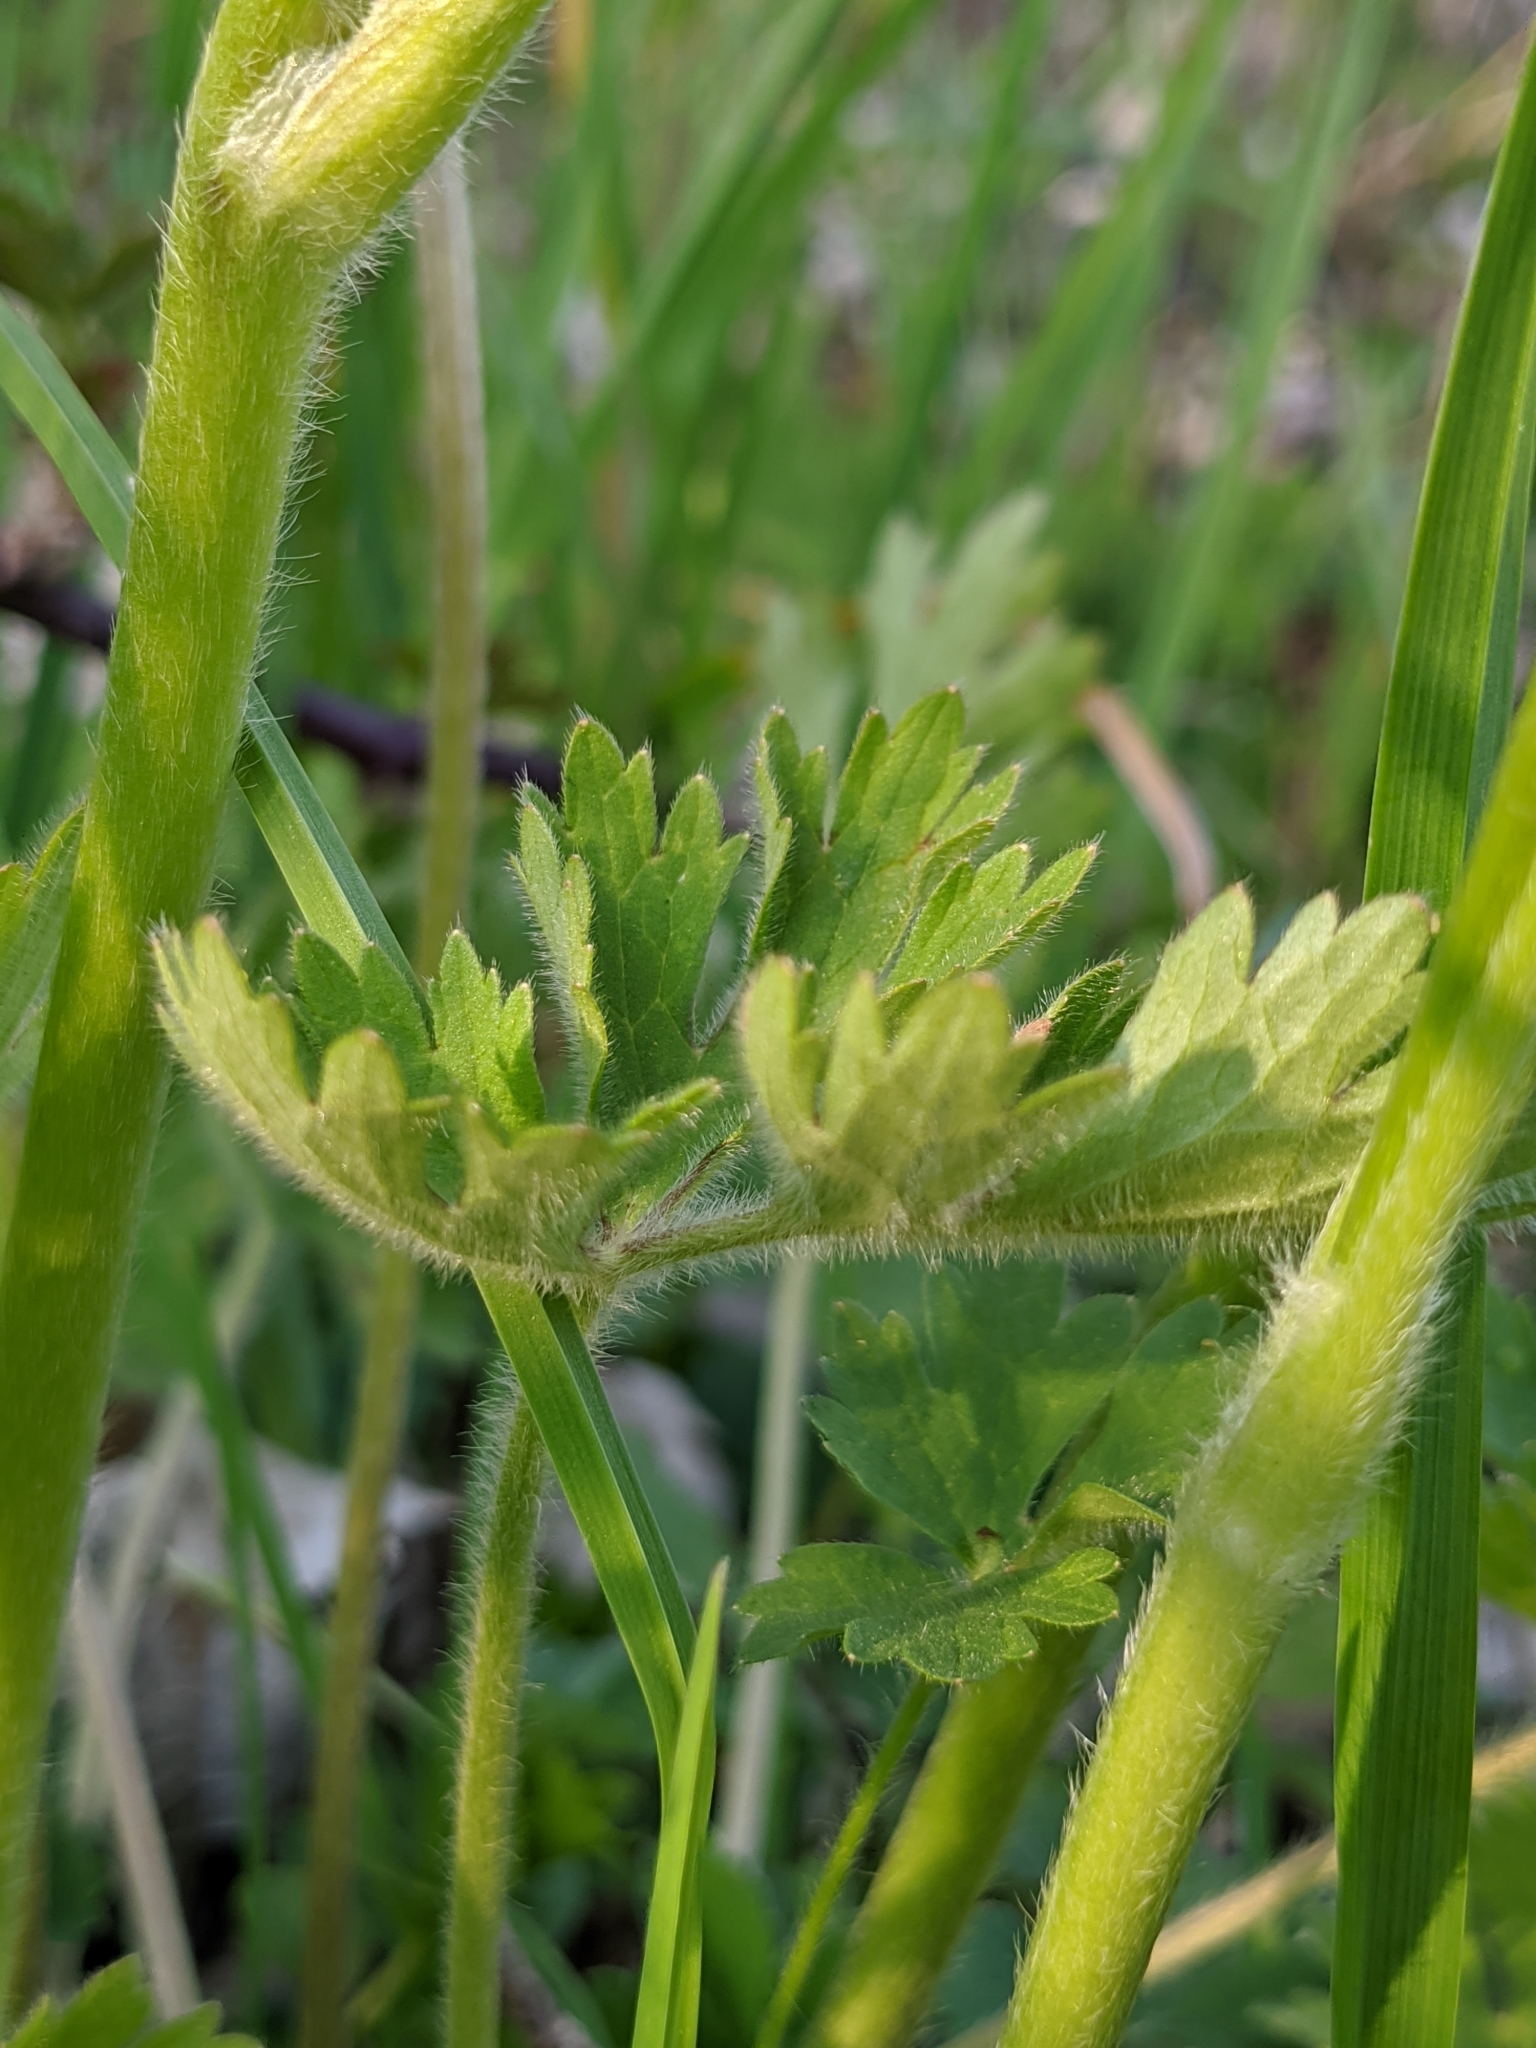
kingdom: Plantae
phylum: Tracheophyta
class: Magnoliopsida
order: Ranunculales
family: Ranunculaceae
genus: Ranunculus
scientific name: Ranunculus bulbosus
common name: Bulbous buttercup
